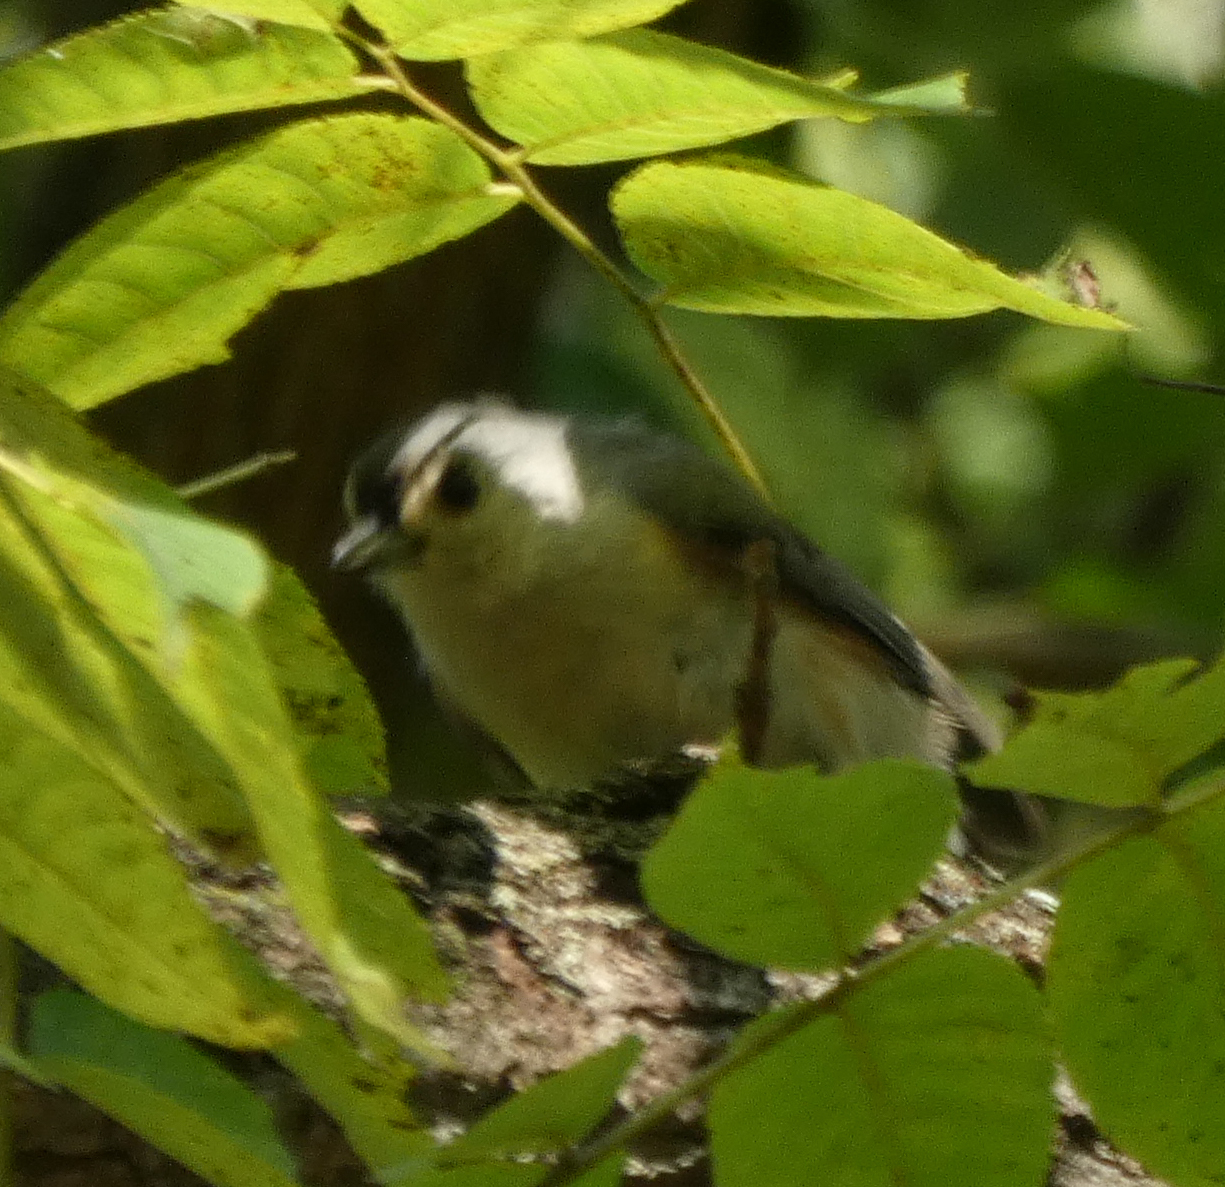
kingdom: Animalia
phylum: Chordata
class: Aves
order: Passeriformes
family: Paridae
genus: Baeolophus
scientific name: Baeolophus bicolor
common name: Tufted titmouse
